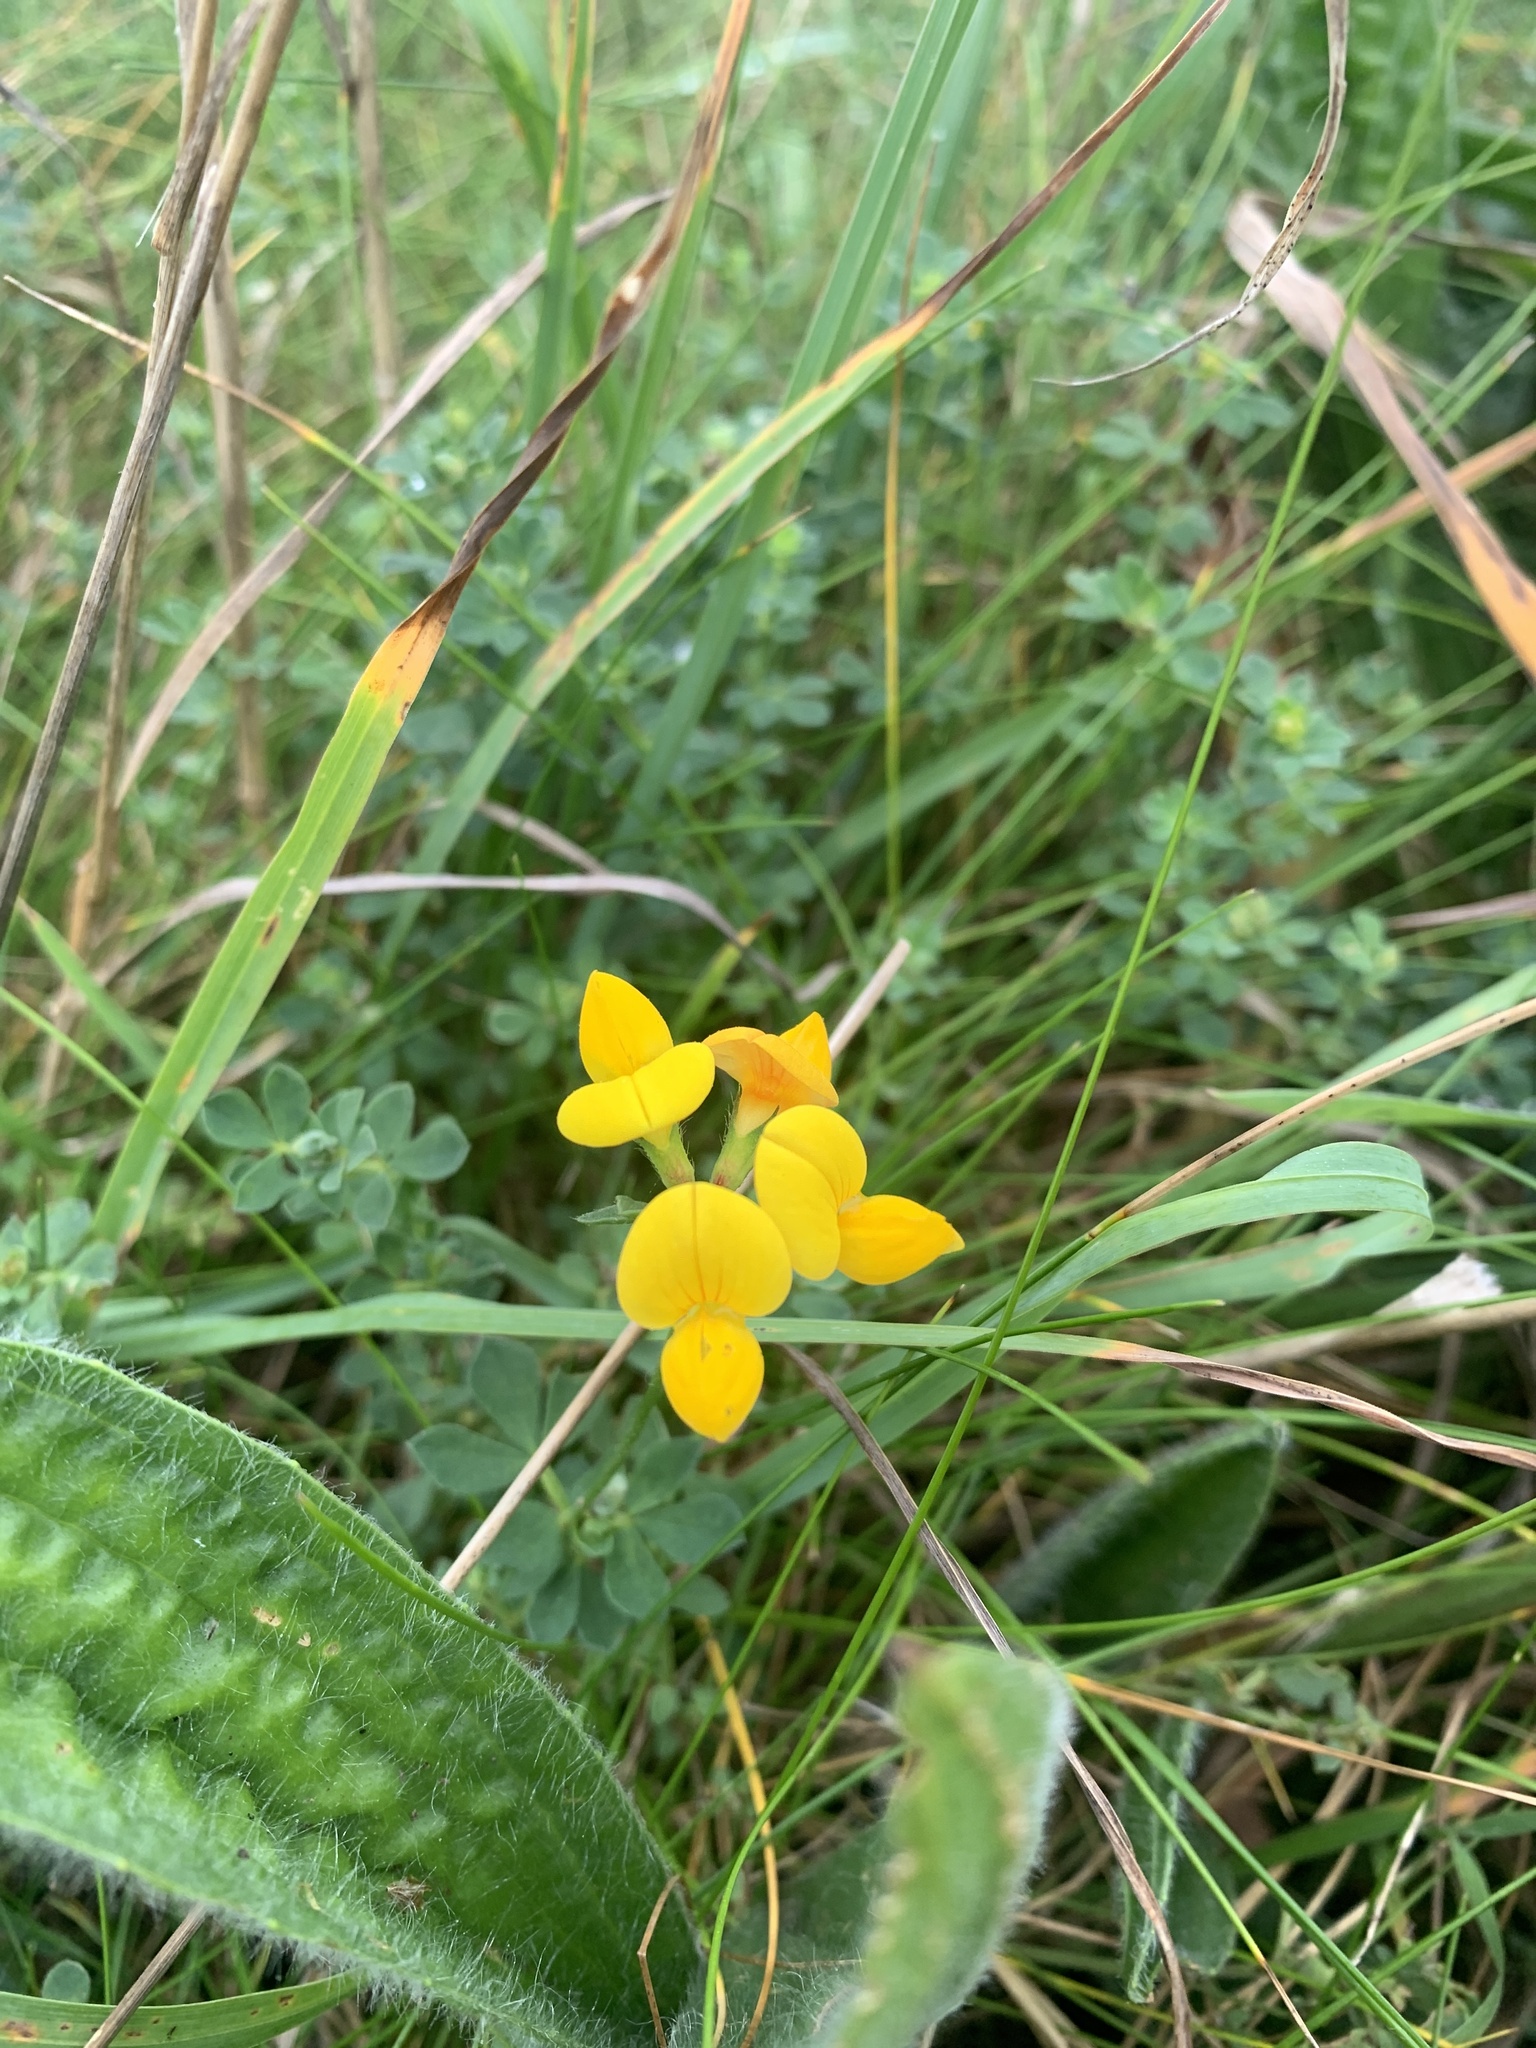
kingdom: Plantae
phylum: Tracheophyta
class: Magnoliopsida
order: Fabales
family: Fabaceae
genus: Lotus
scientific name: Lotus corniculatus
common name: Common bird's-foot-trefoil
